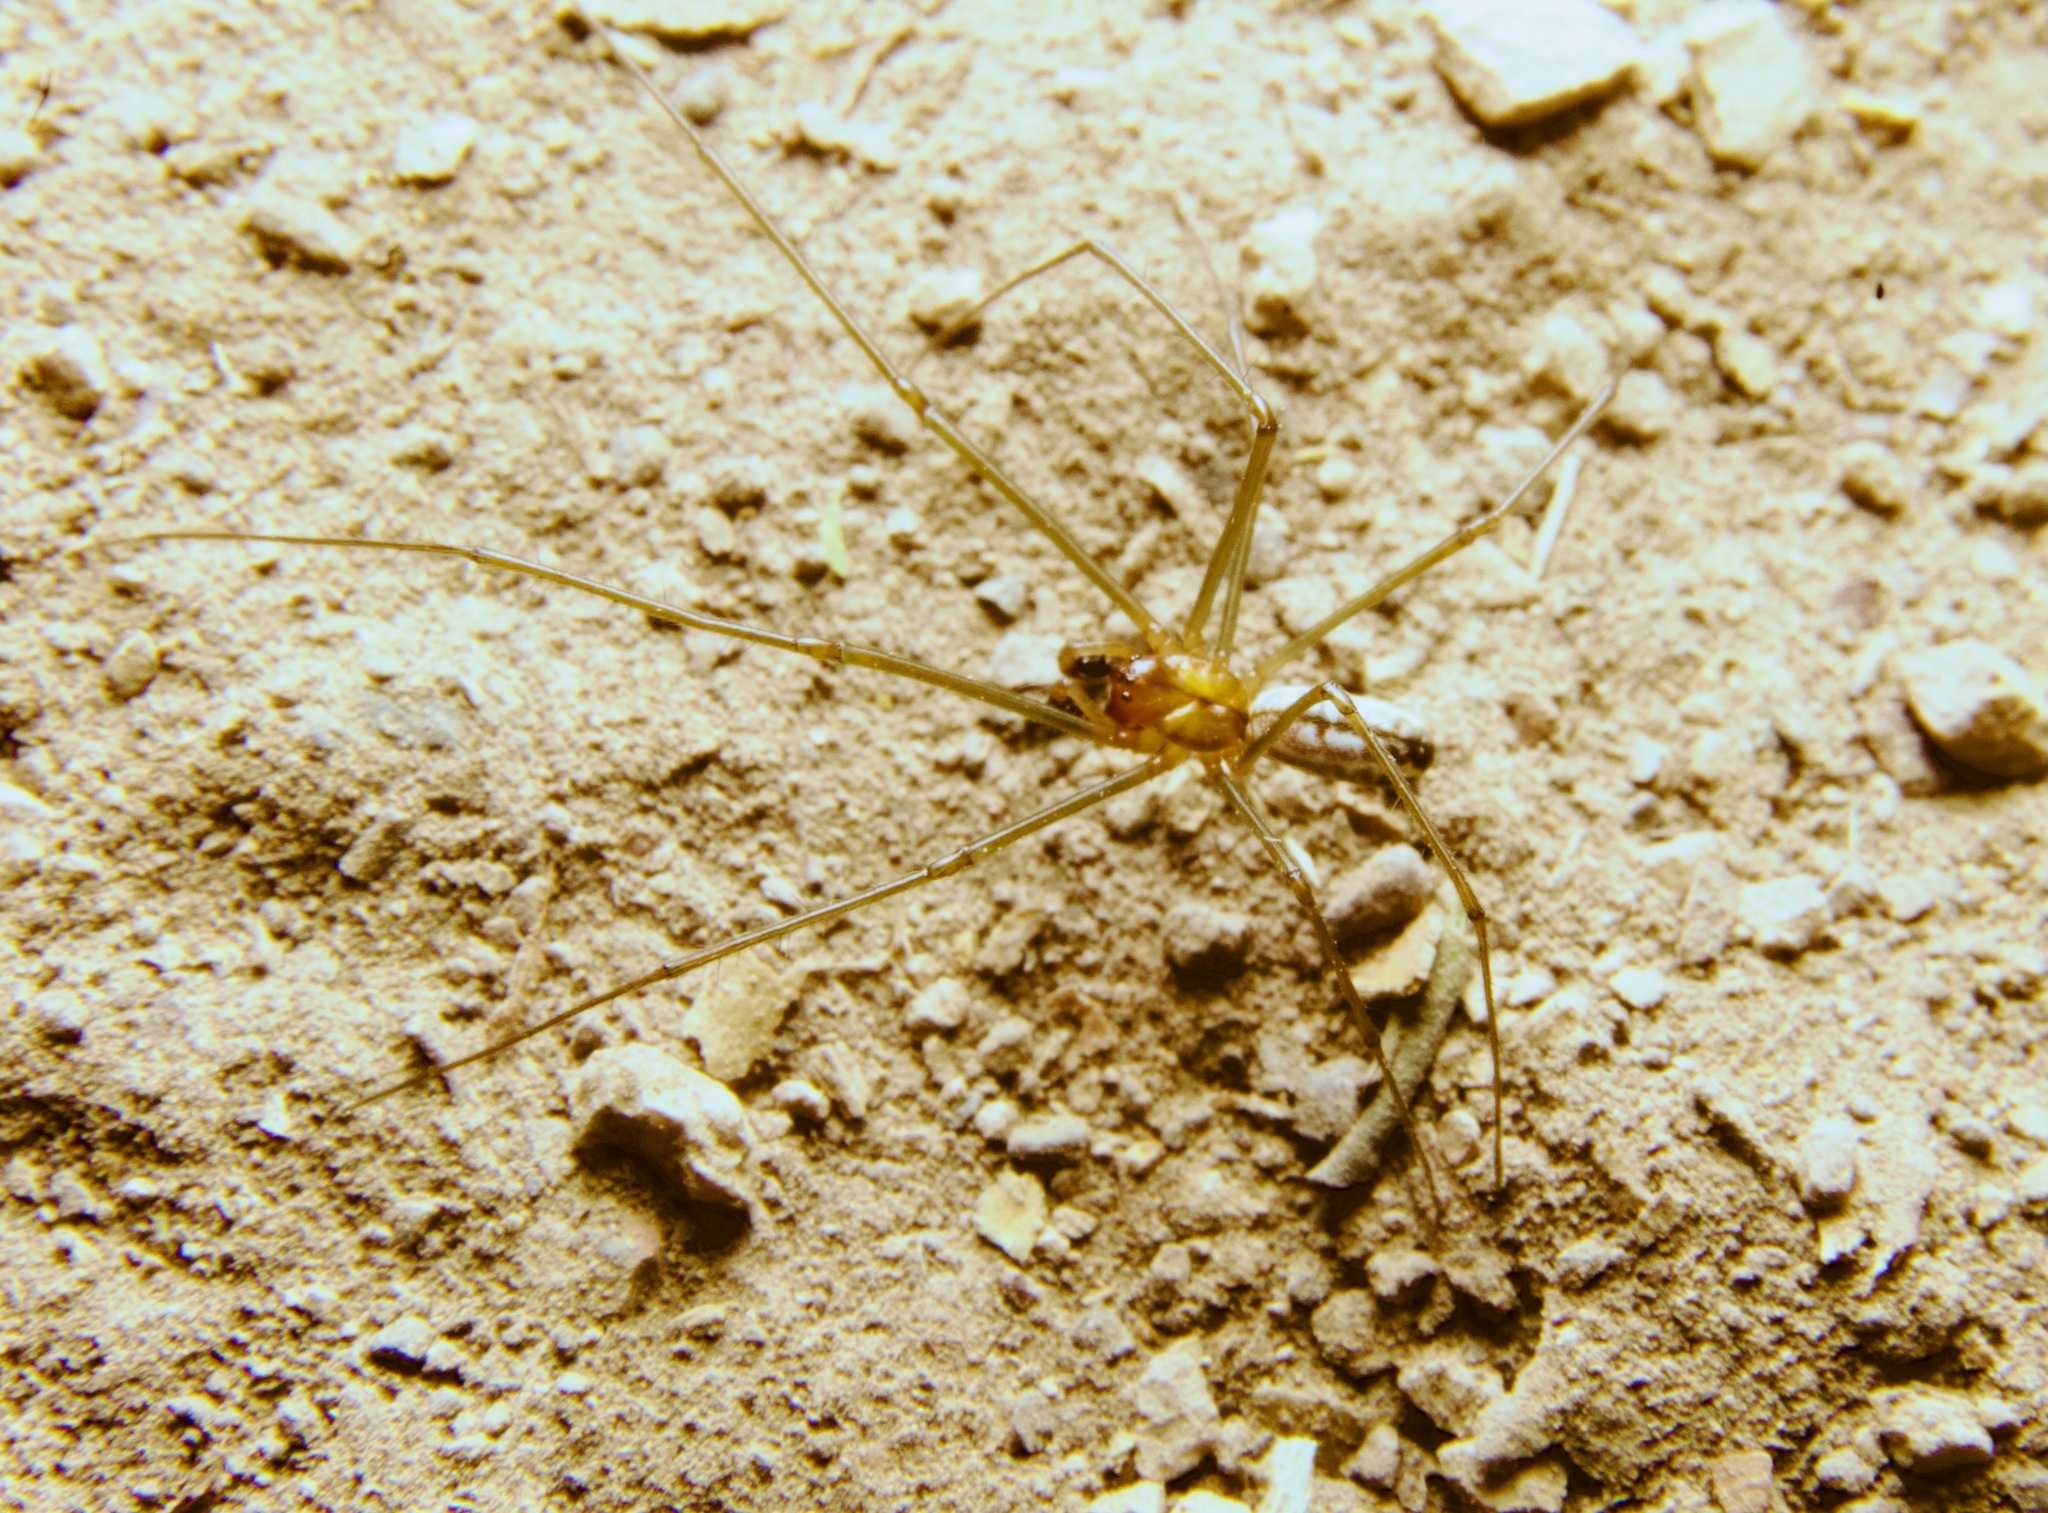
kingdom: Animalia
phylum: Arthropoda
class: Arachnida
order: Araneae
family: Linyphiidae
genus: Neriene
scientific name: Neriene litigiosa
